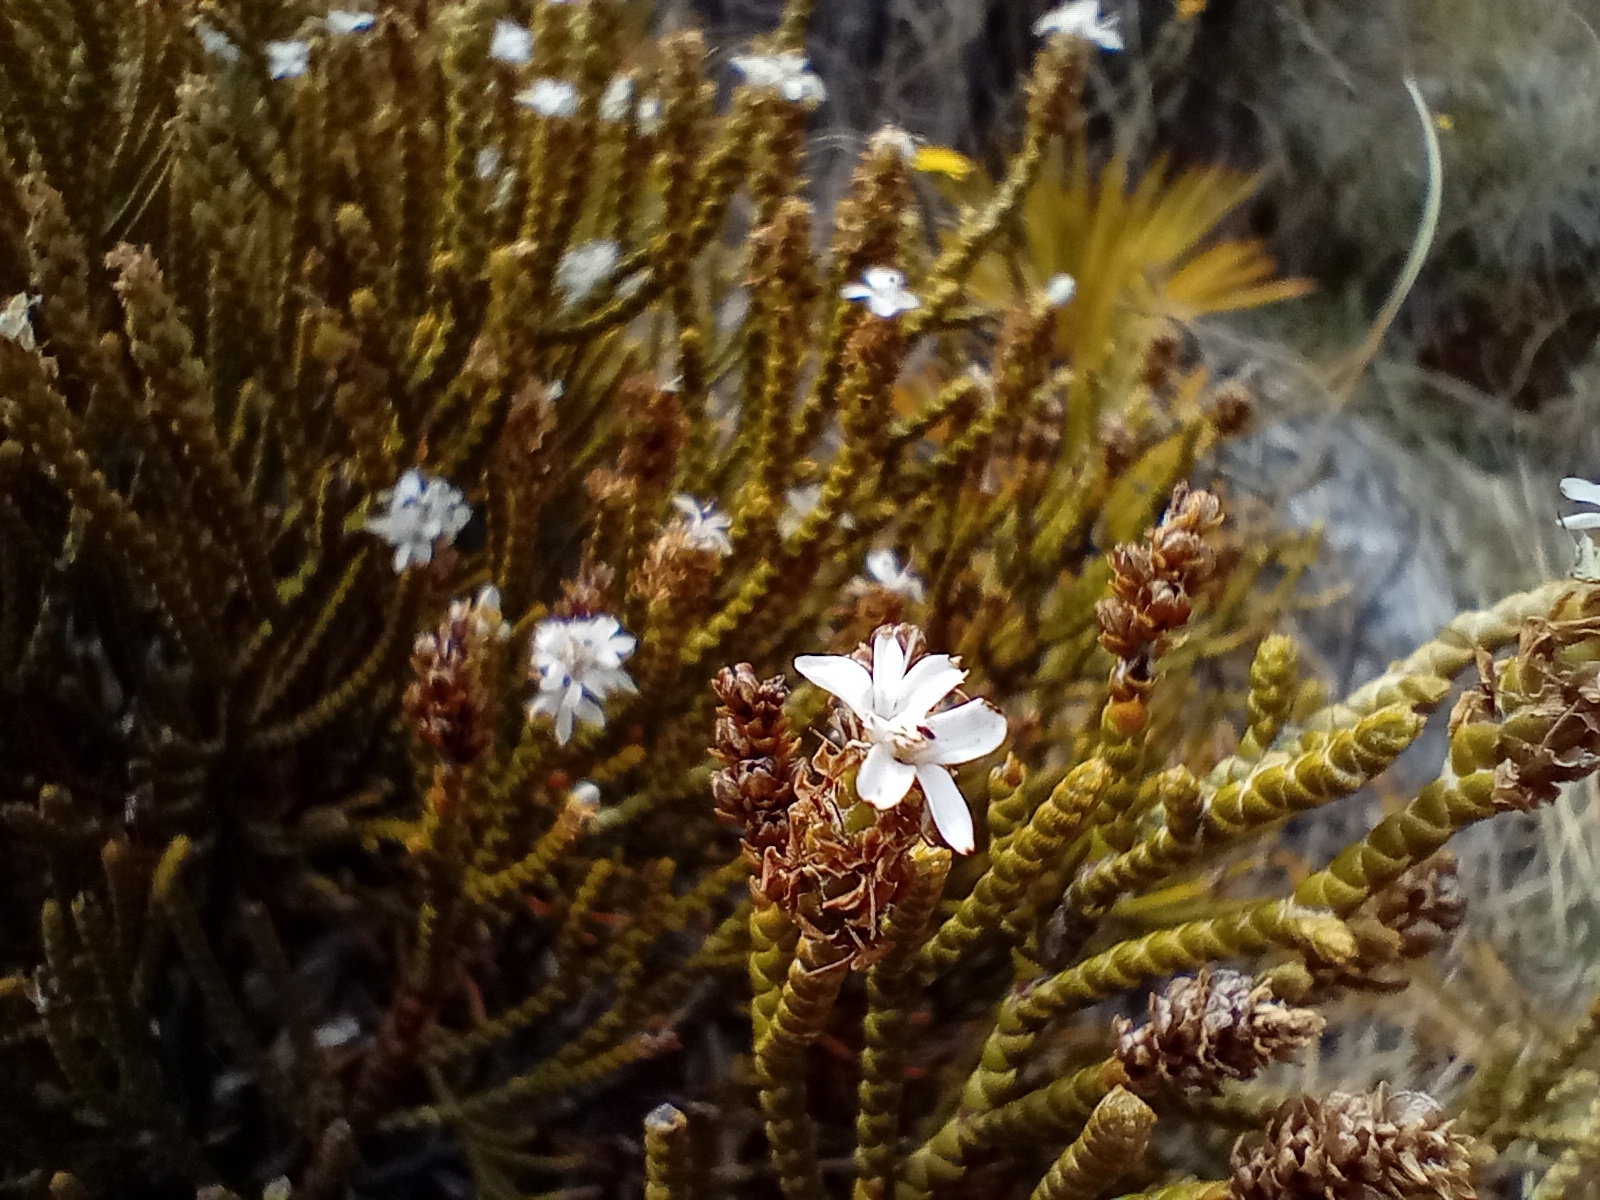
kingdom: Plantae
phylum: Tracheophyta
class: Magnoliopsida
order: Lamiales
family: Plantaginaceae
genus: Veronica
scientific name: Veronica lycopodioides
